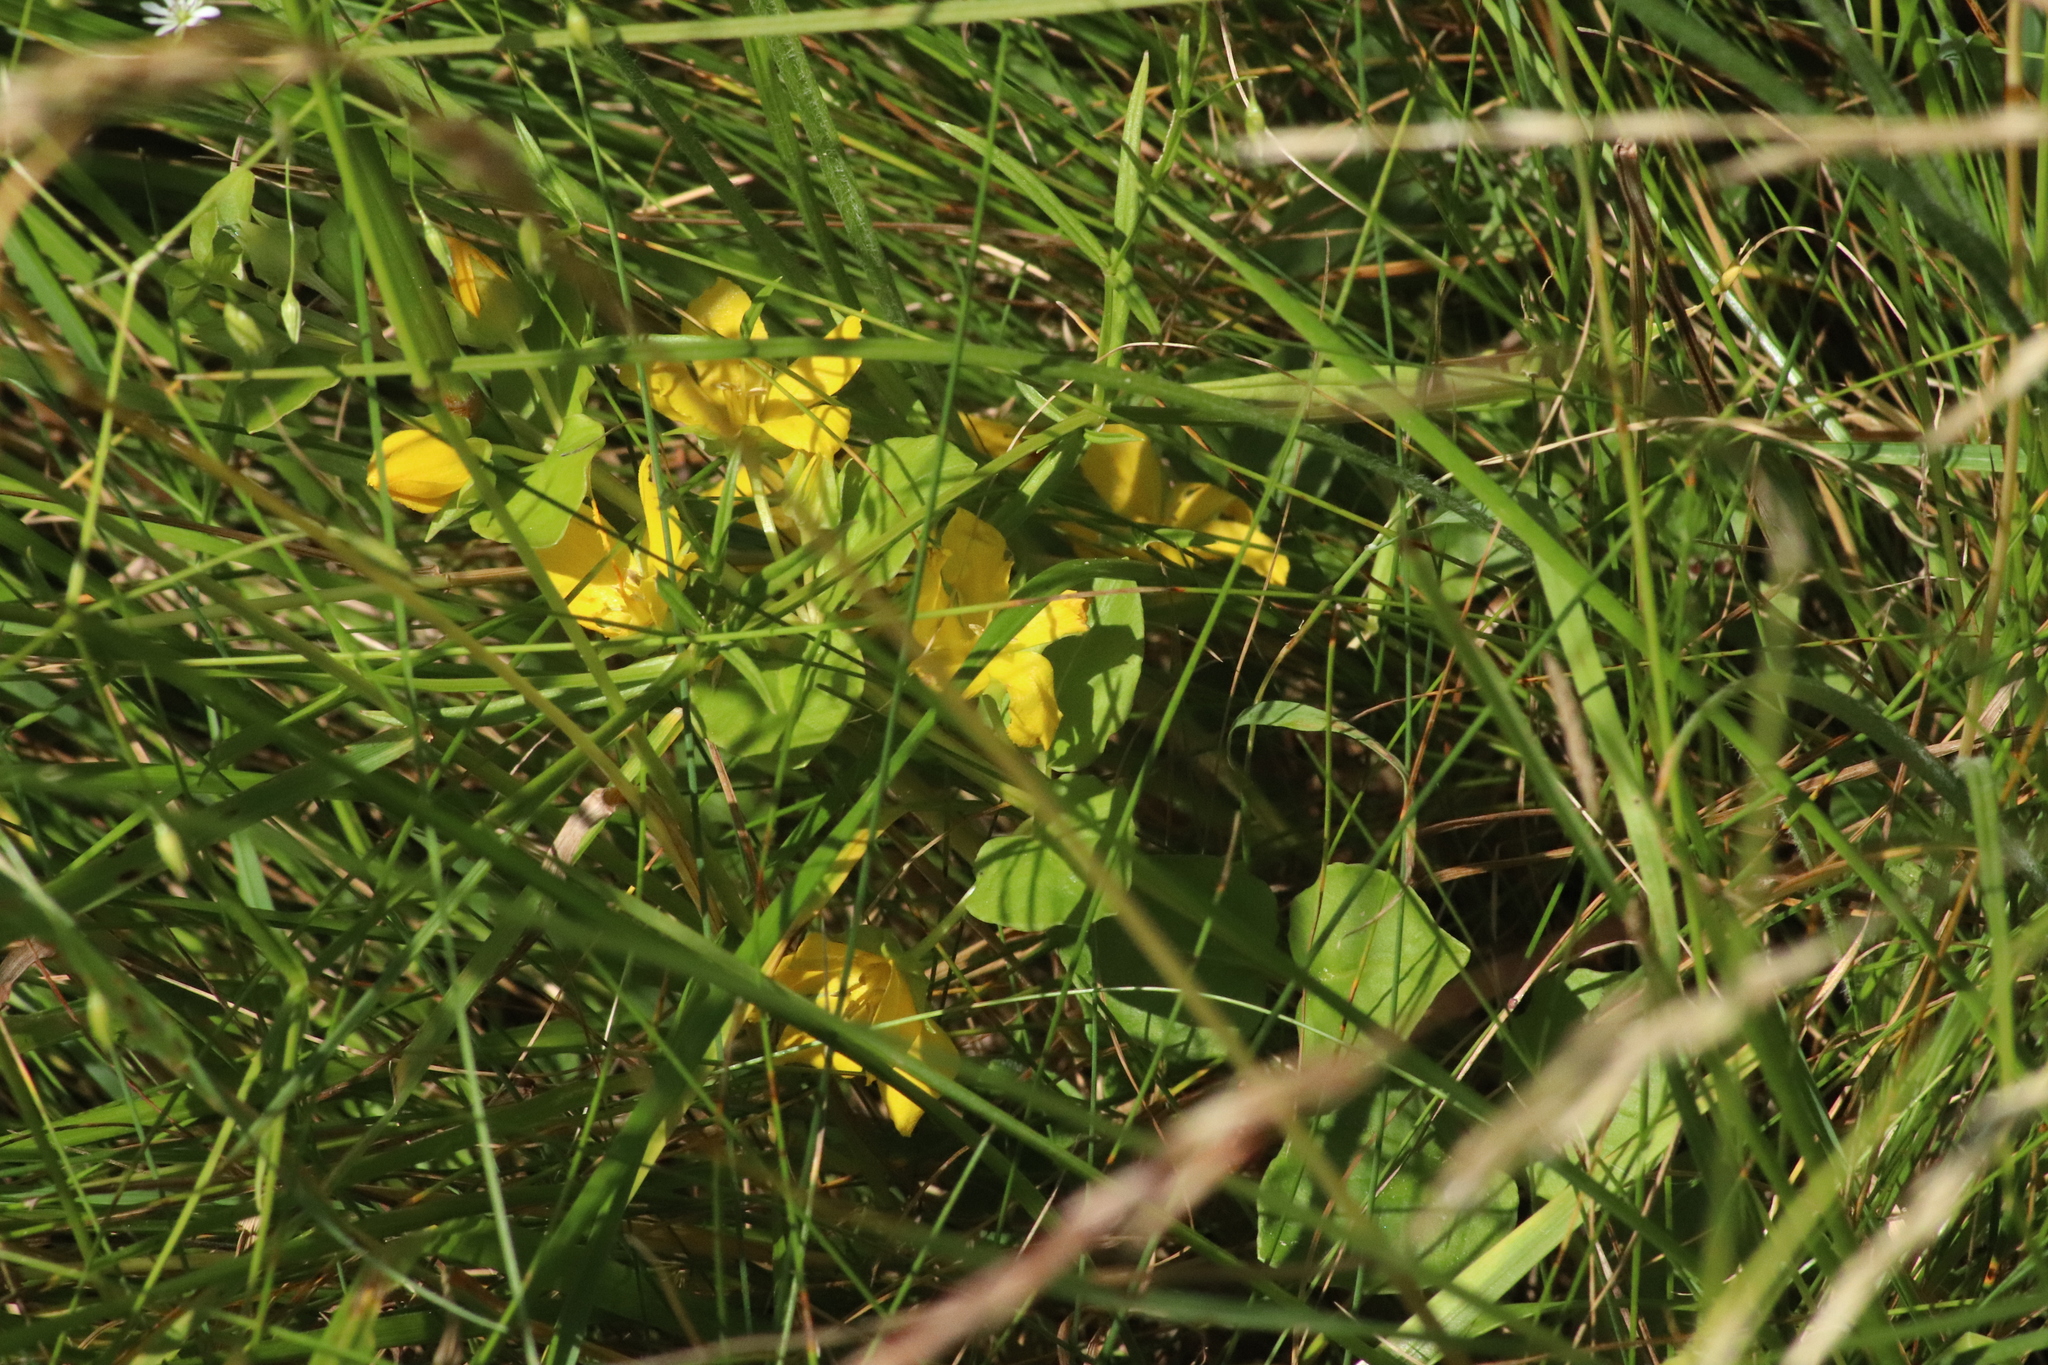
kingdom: Plantae
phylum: Tracheophyta
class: Magnoliopsida
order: Ericales
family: Primulaceae
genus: Lysimachia
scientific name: Lysimachia nummularia
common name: Moneywort
